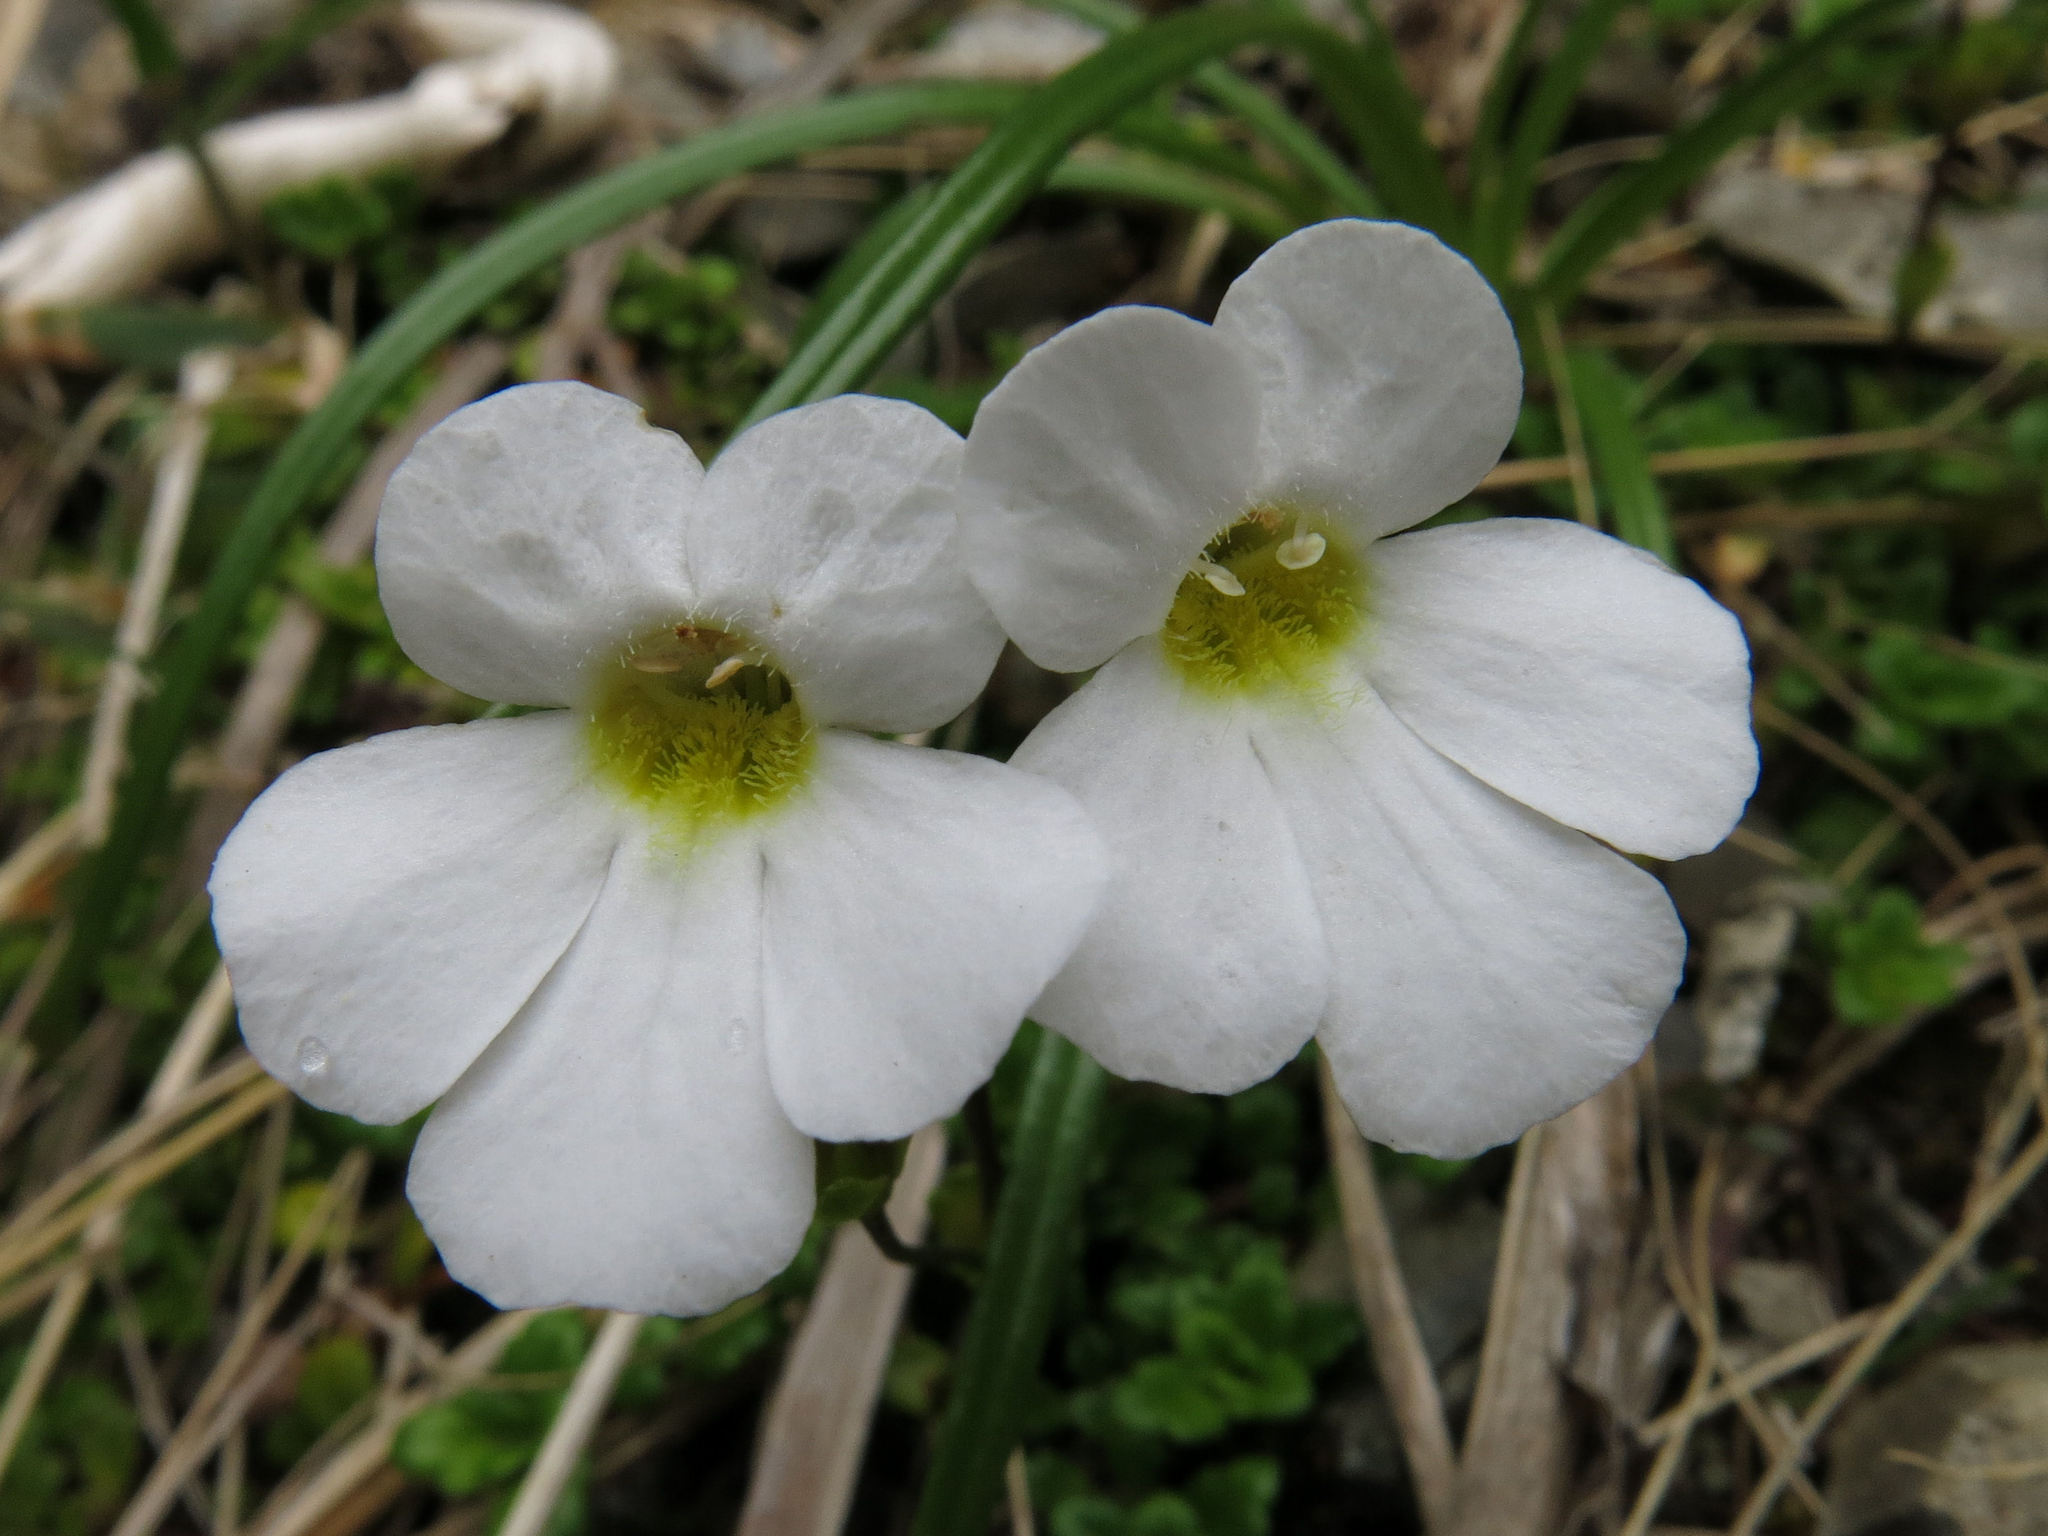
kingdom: Plantae
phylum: Tracheophyta
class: Magnoliopsida
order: Lamiales
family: Plantaginaceae
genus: Ourisia
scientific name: Ourisia caespitosa
